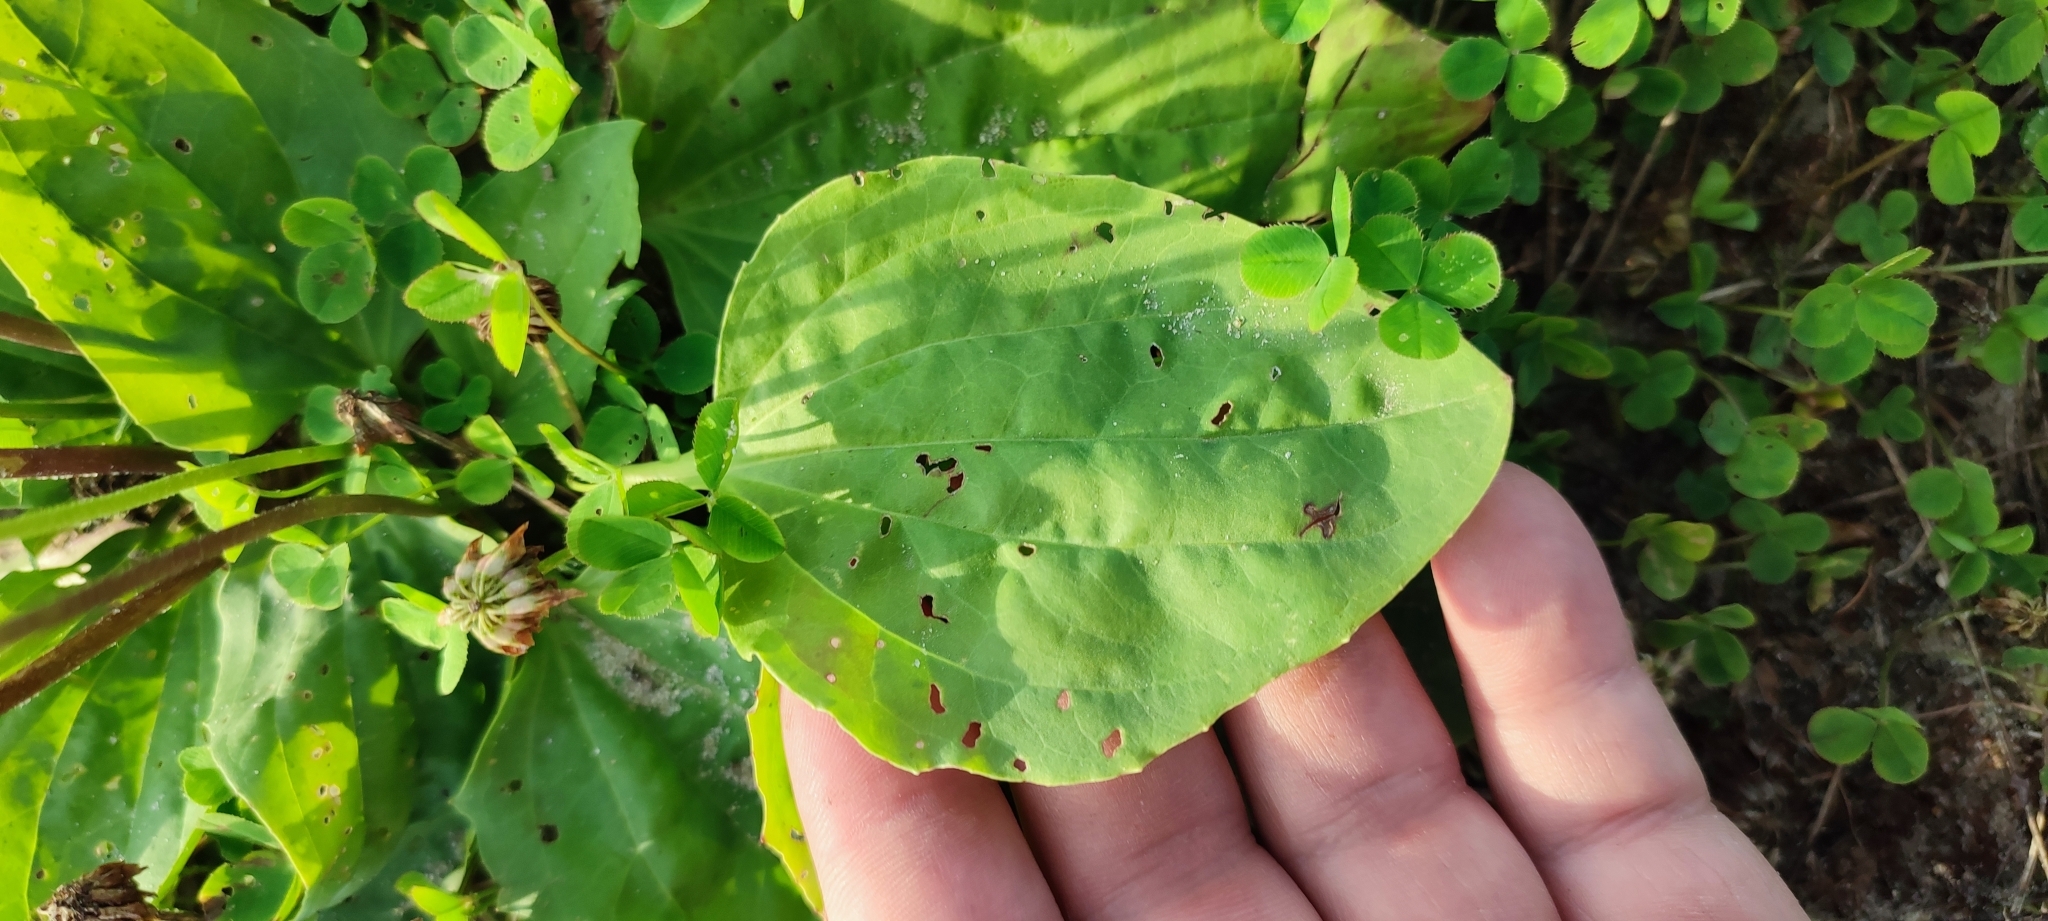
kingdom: Plantae
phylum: Tracheophyta
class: Magnoliopsida
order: Lamiales
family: Plantaginaceae
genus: Plantago
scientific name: Plantago major
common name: Common plantain
